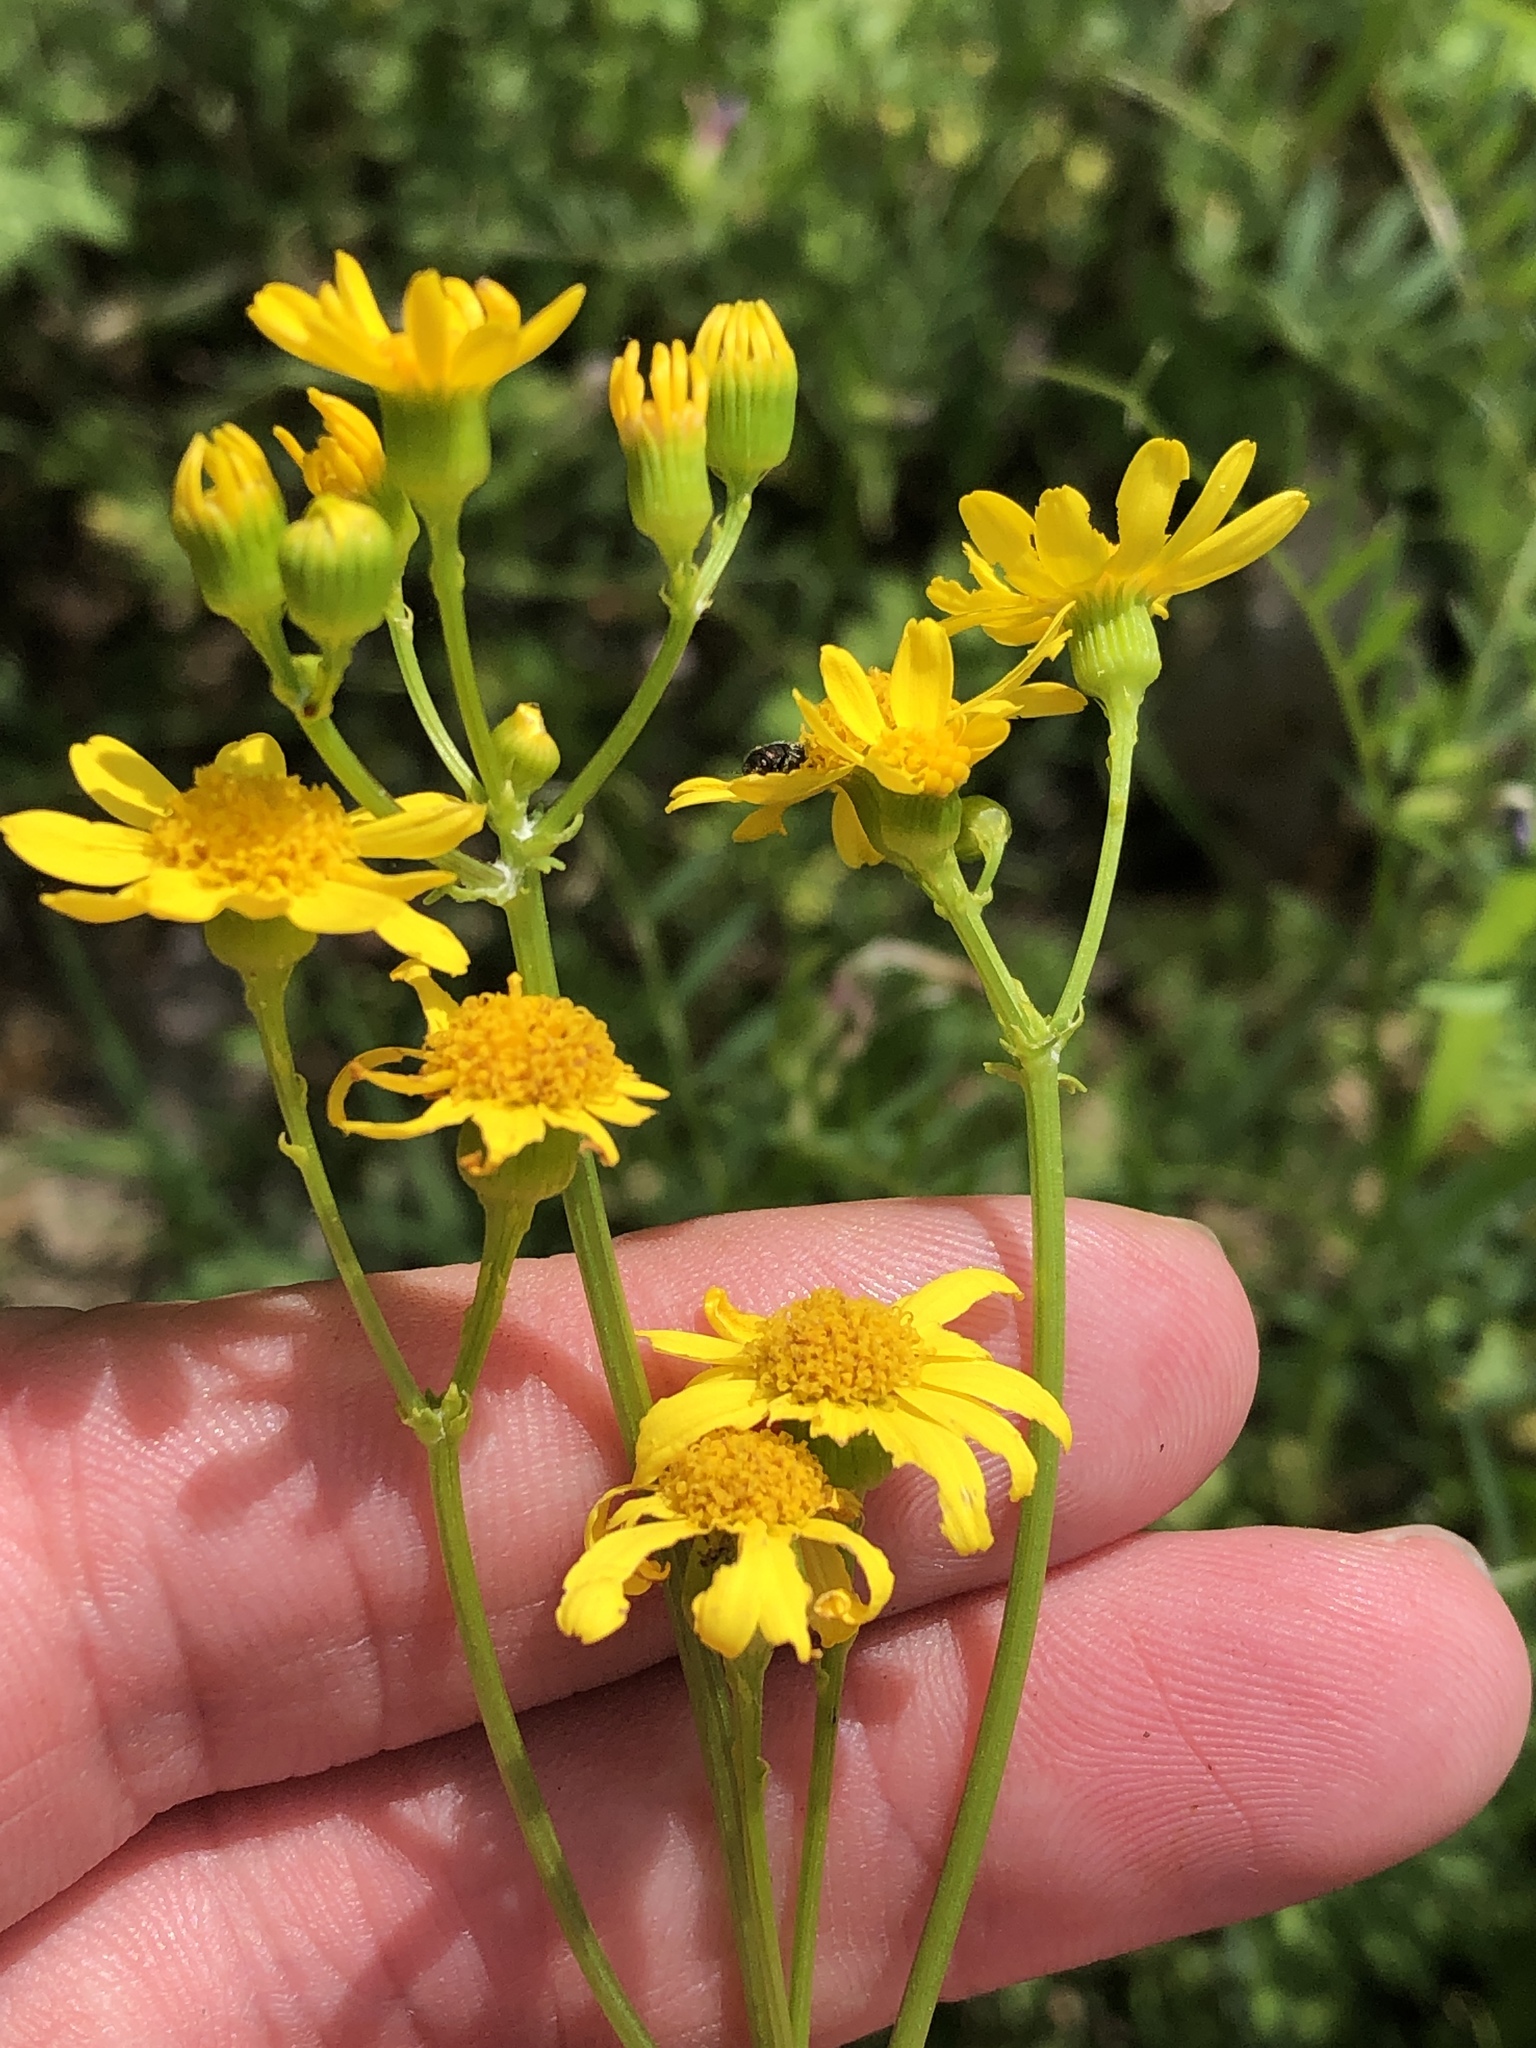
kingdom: Plantae
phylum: Tracheophyta
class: Magnoliopsida
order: Asterales
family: Asteraceae
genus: Packera
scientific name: Packera tampicana
